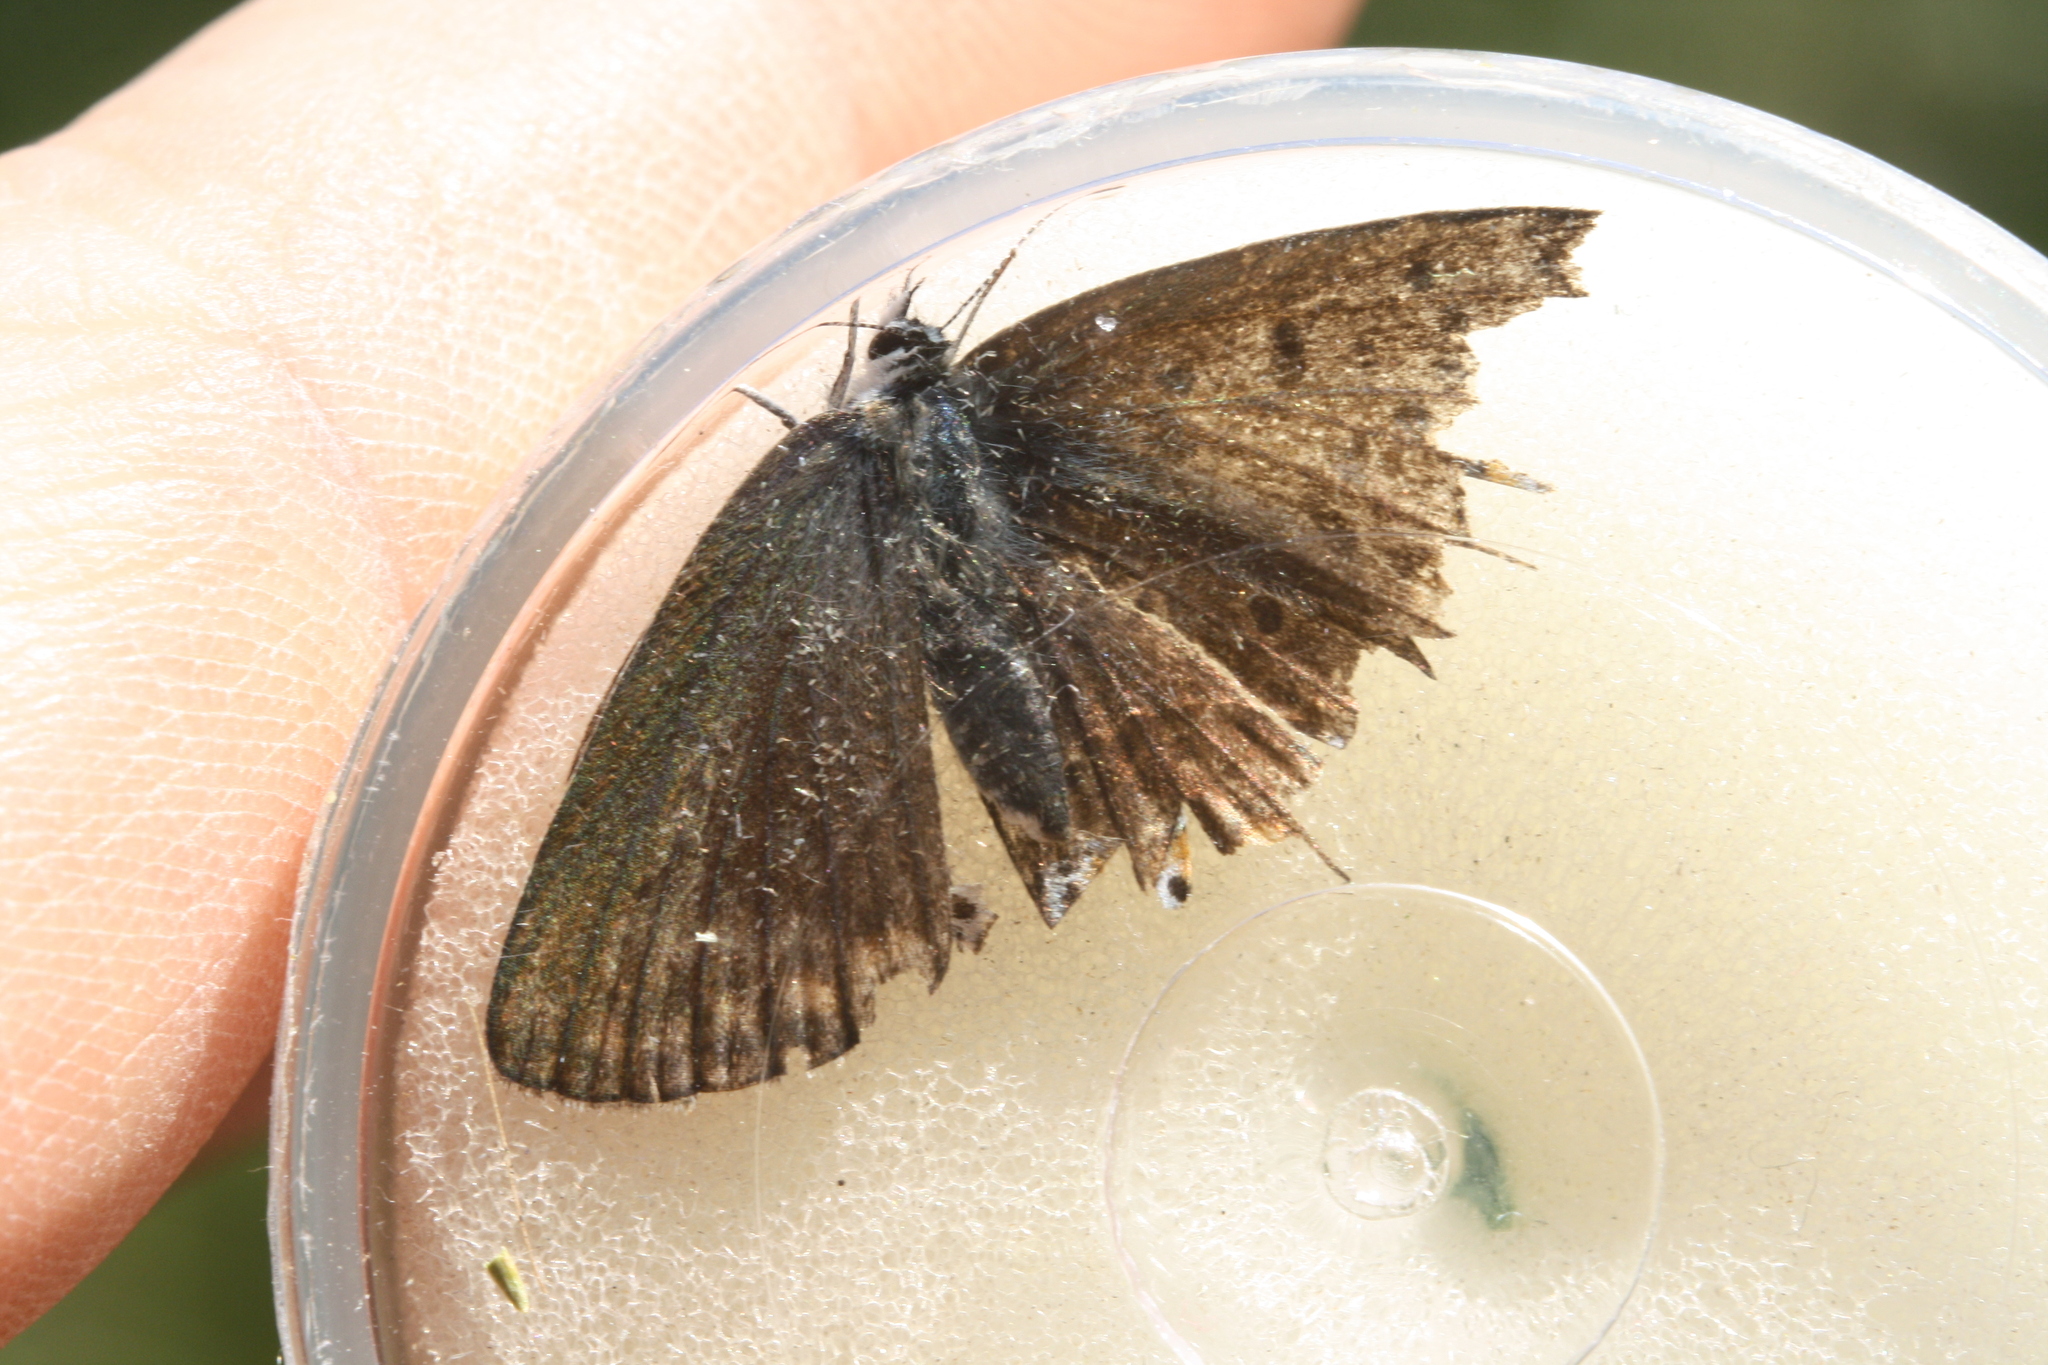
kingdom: Animalia
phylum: Arthropoda
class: Insecta
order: Lepidoptera
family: Lycaenidae
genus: Polyommatus
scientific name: Polyommatus icarus
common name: Common blue
